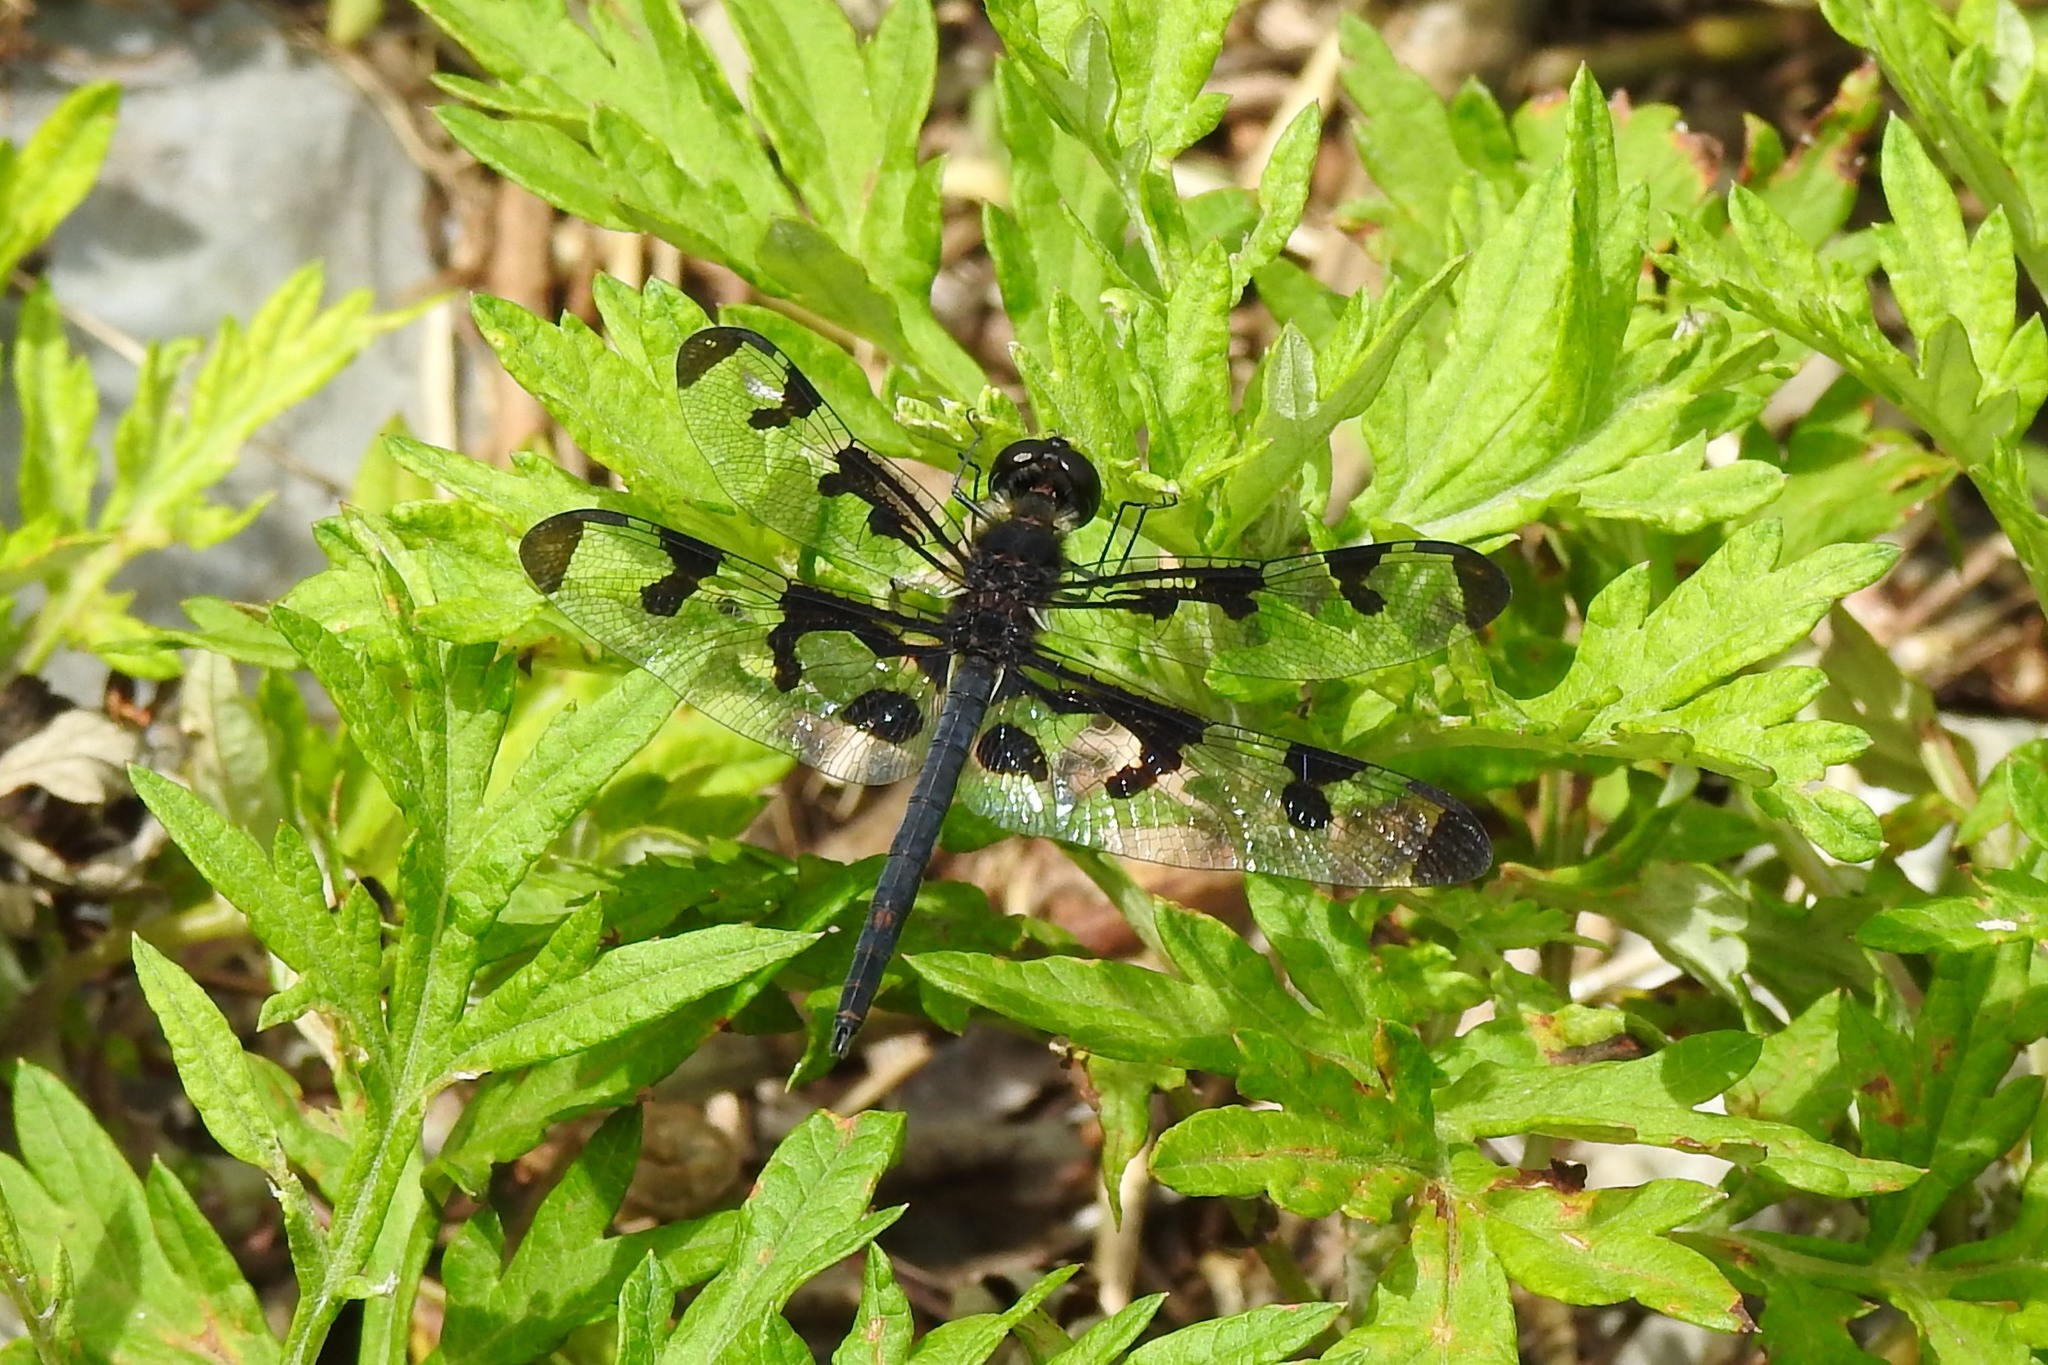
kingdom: Animalia
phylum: Arthropoda
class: Insecta
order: Odonata
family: Libellulidae
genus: Celithemis
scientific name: Celithemis fasciata
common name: Banded pennant
